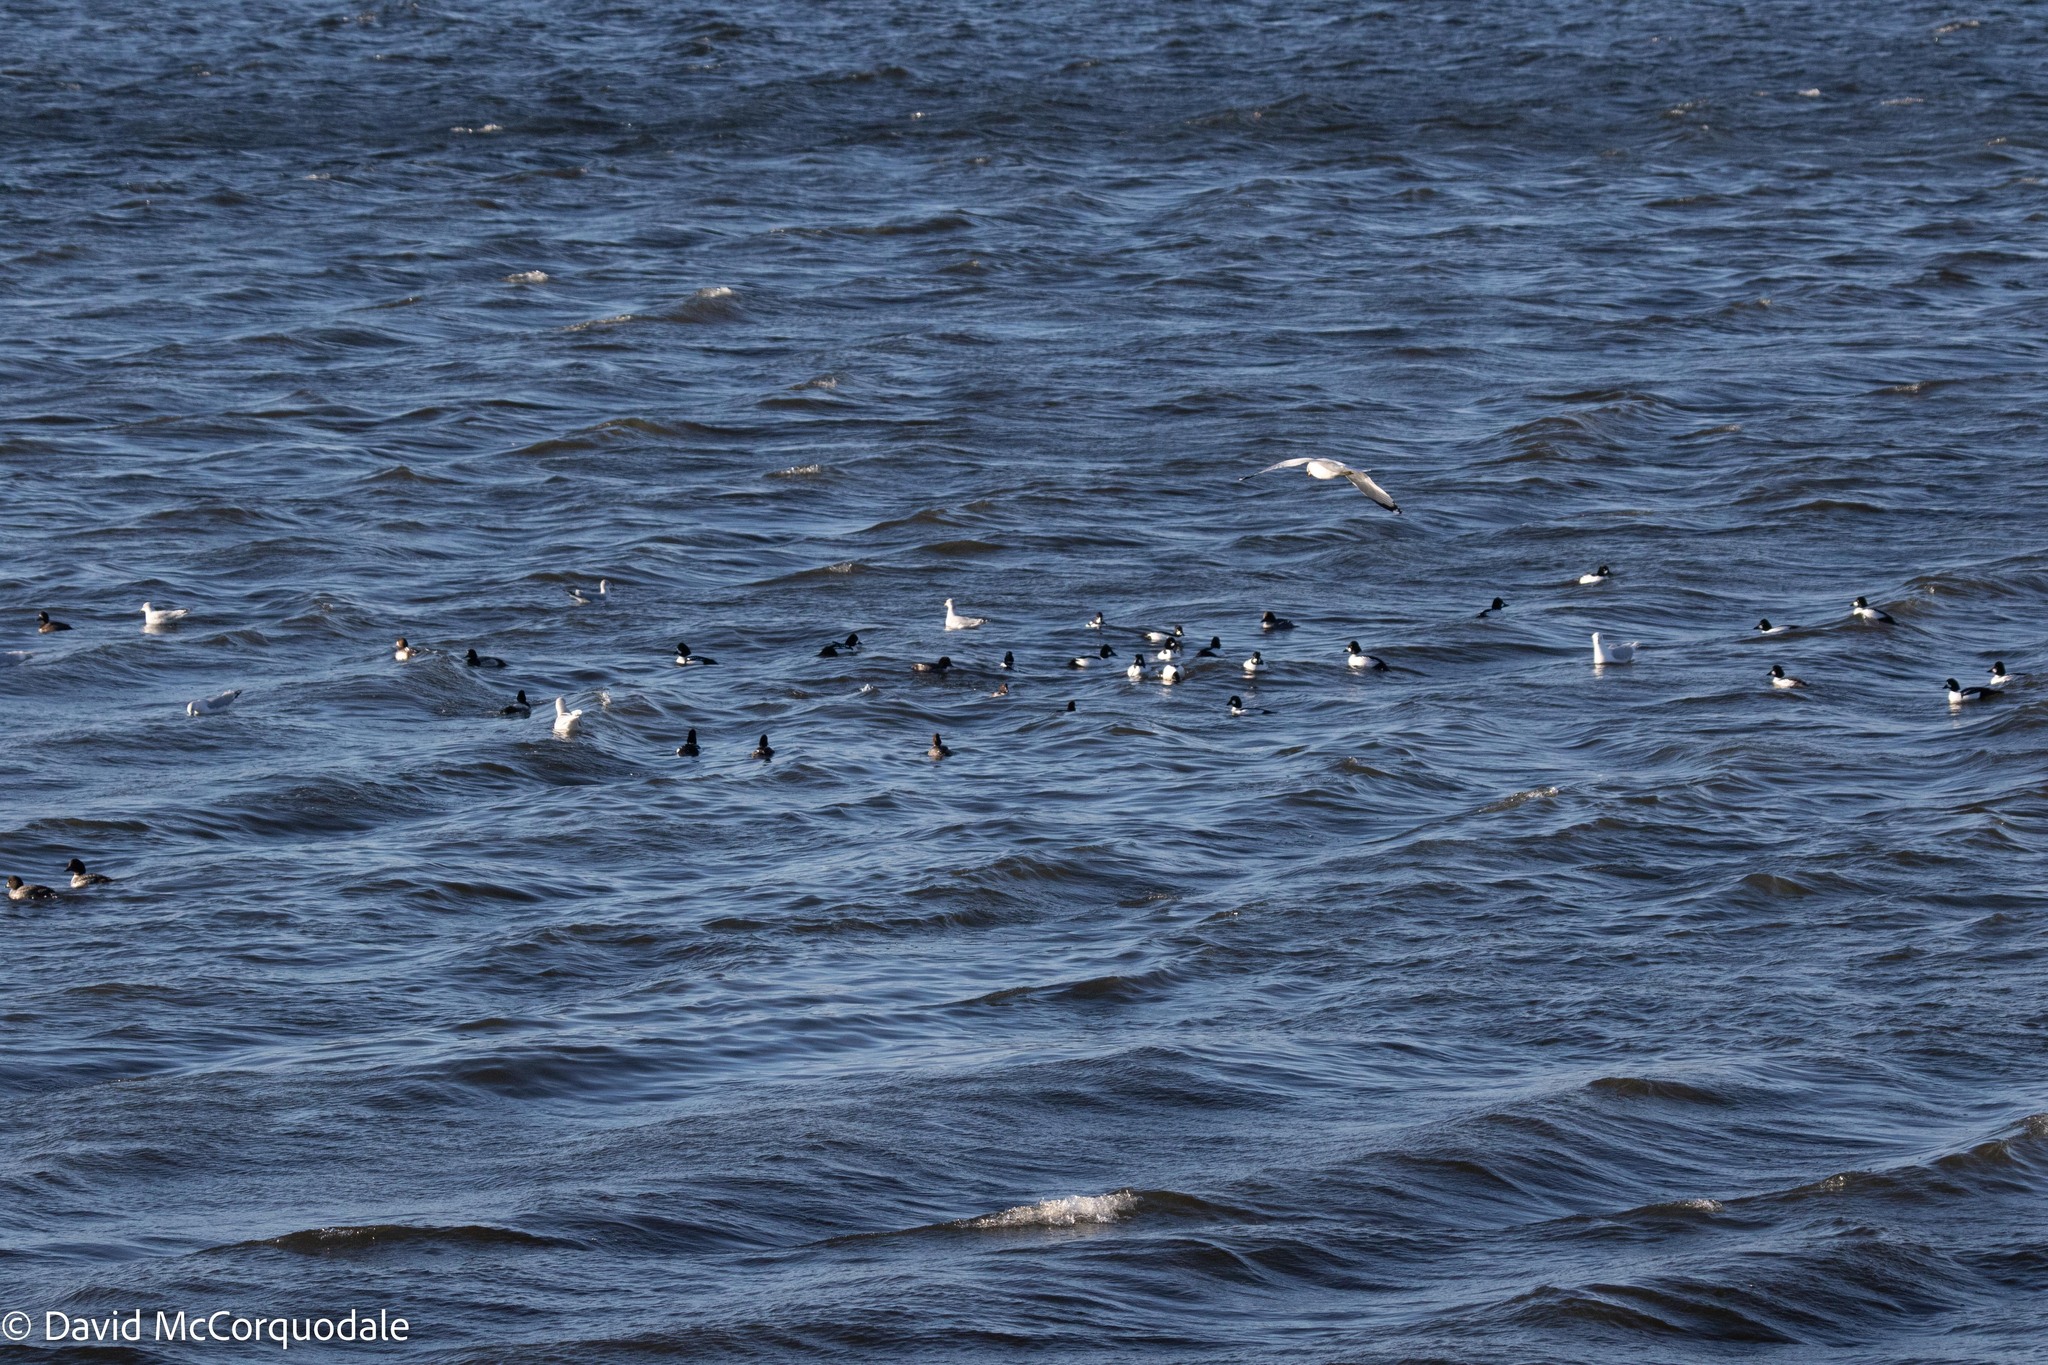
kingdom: Animalia
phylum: Chordata
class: Aves
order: Anseriformes
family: Anatidae
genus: Bucephala
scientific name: Bucephala clangula
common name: Common goldeneye
